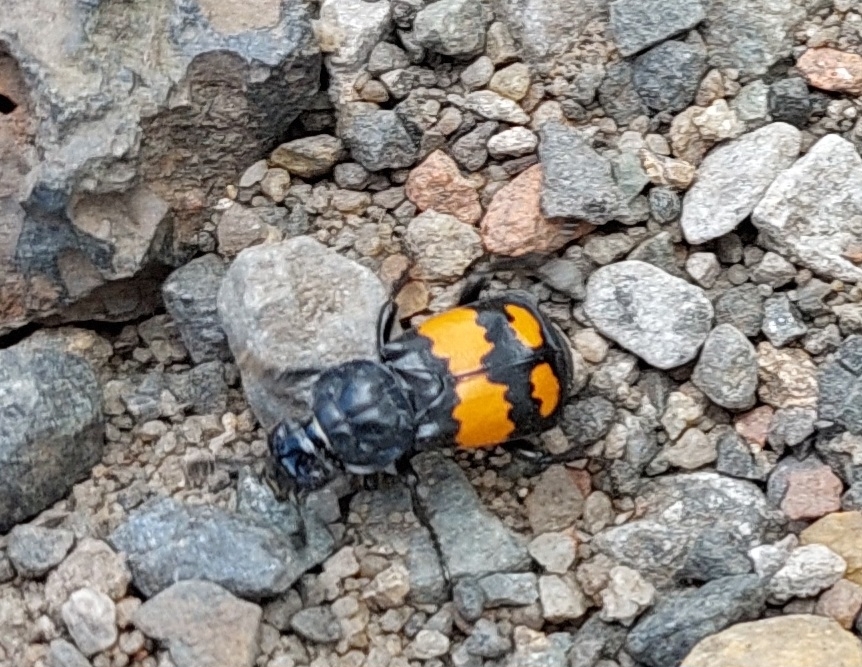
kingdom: Animalia
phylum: Arthropoda
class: Insecta
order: Coleoptera
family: Staphylinidae
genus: Nicrophorus
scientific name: Nicrophorus vespilloides
